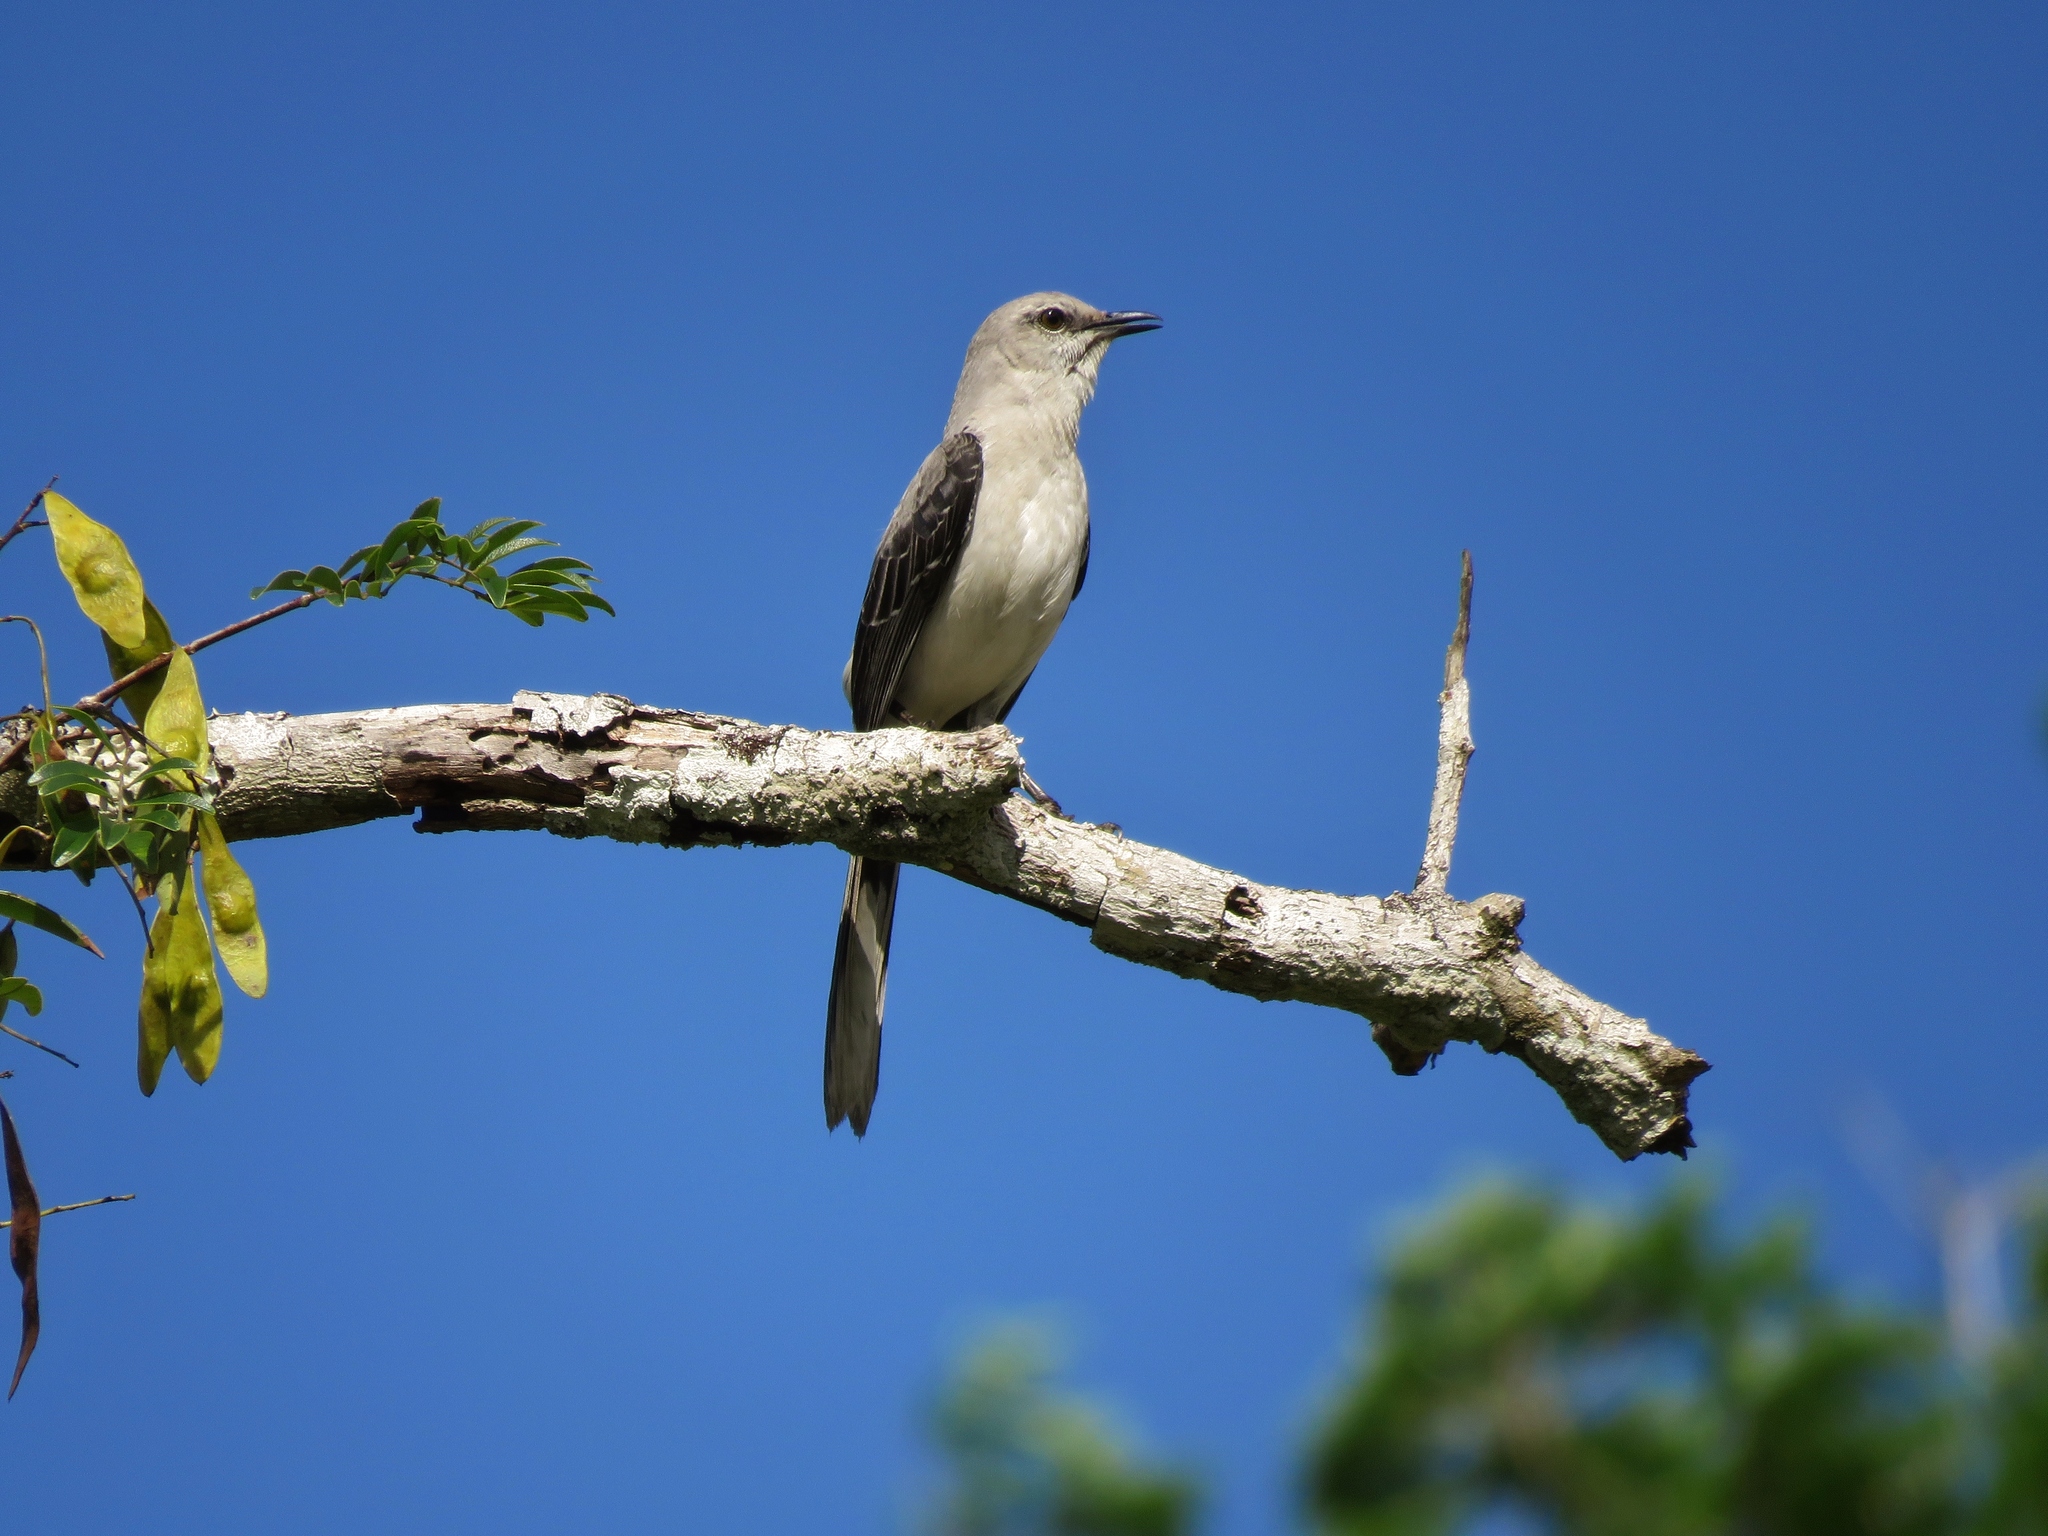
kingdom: Animalia
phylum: Chordata
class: Aves
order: Passeriformes
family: Mimidae
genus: Mimus
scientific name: Mimus gilvus
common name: Tropical mockingbird
